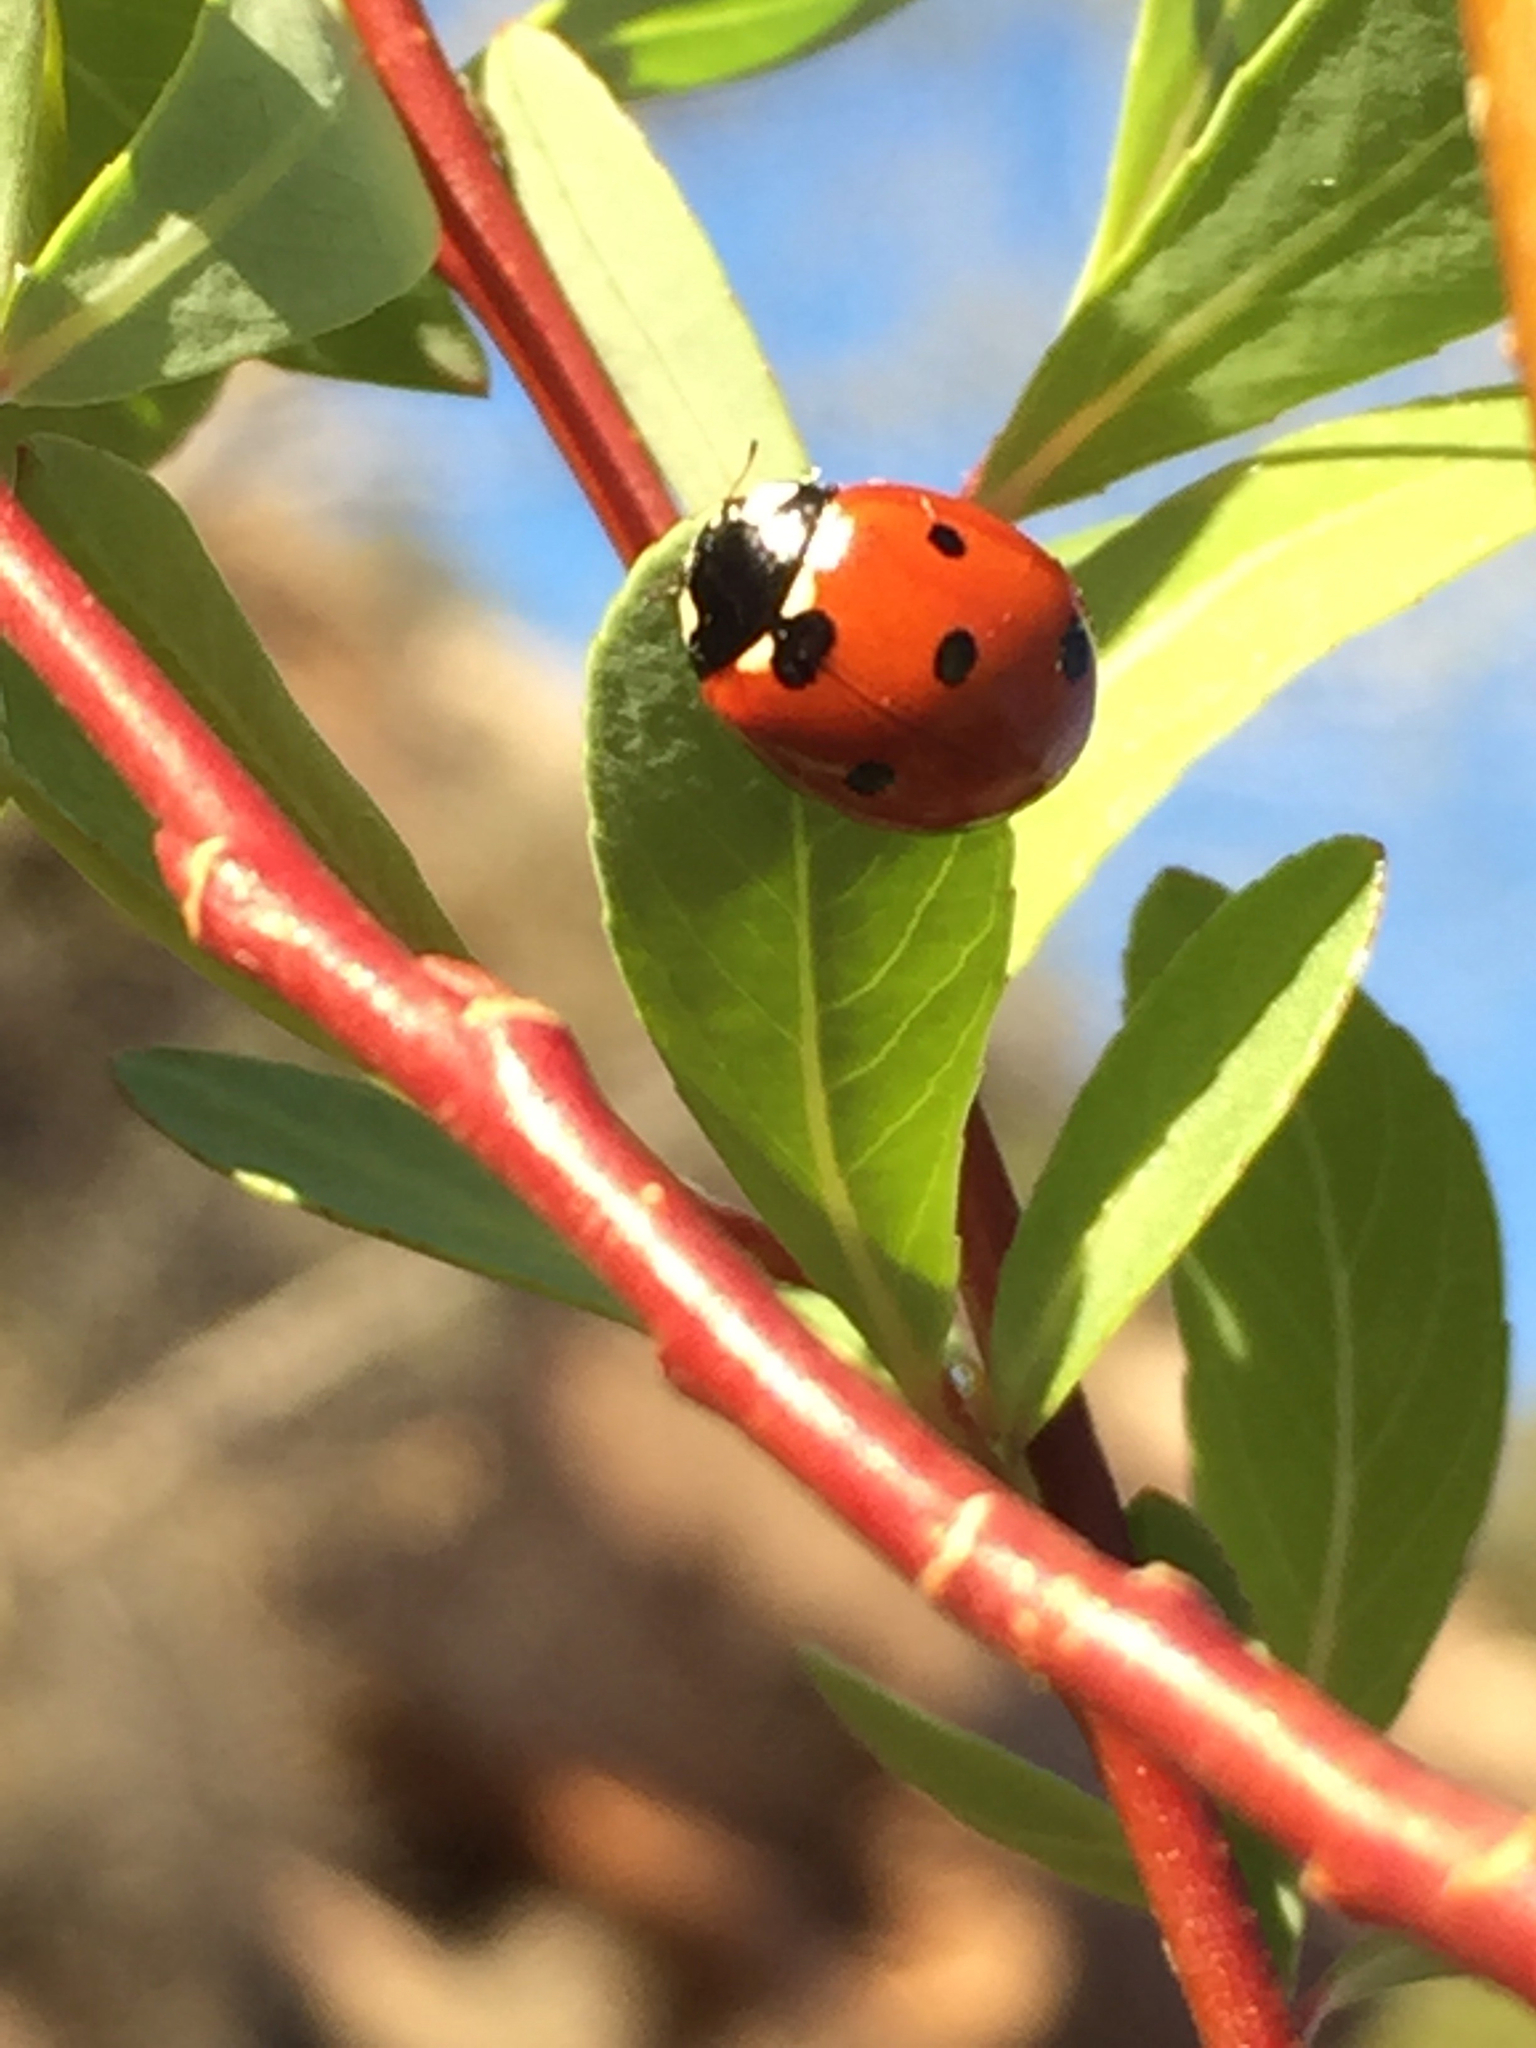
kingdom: Animalia
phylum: Arthropoda
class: Insecta
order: Coleoptera
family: Coccinellidae
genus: Coccinella
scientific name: Coccinella septempunctata
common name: Sevenspotted lady beetle
